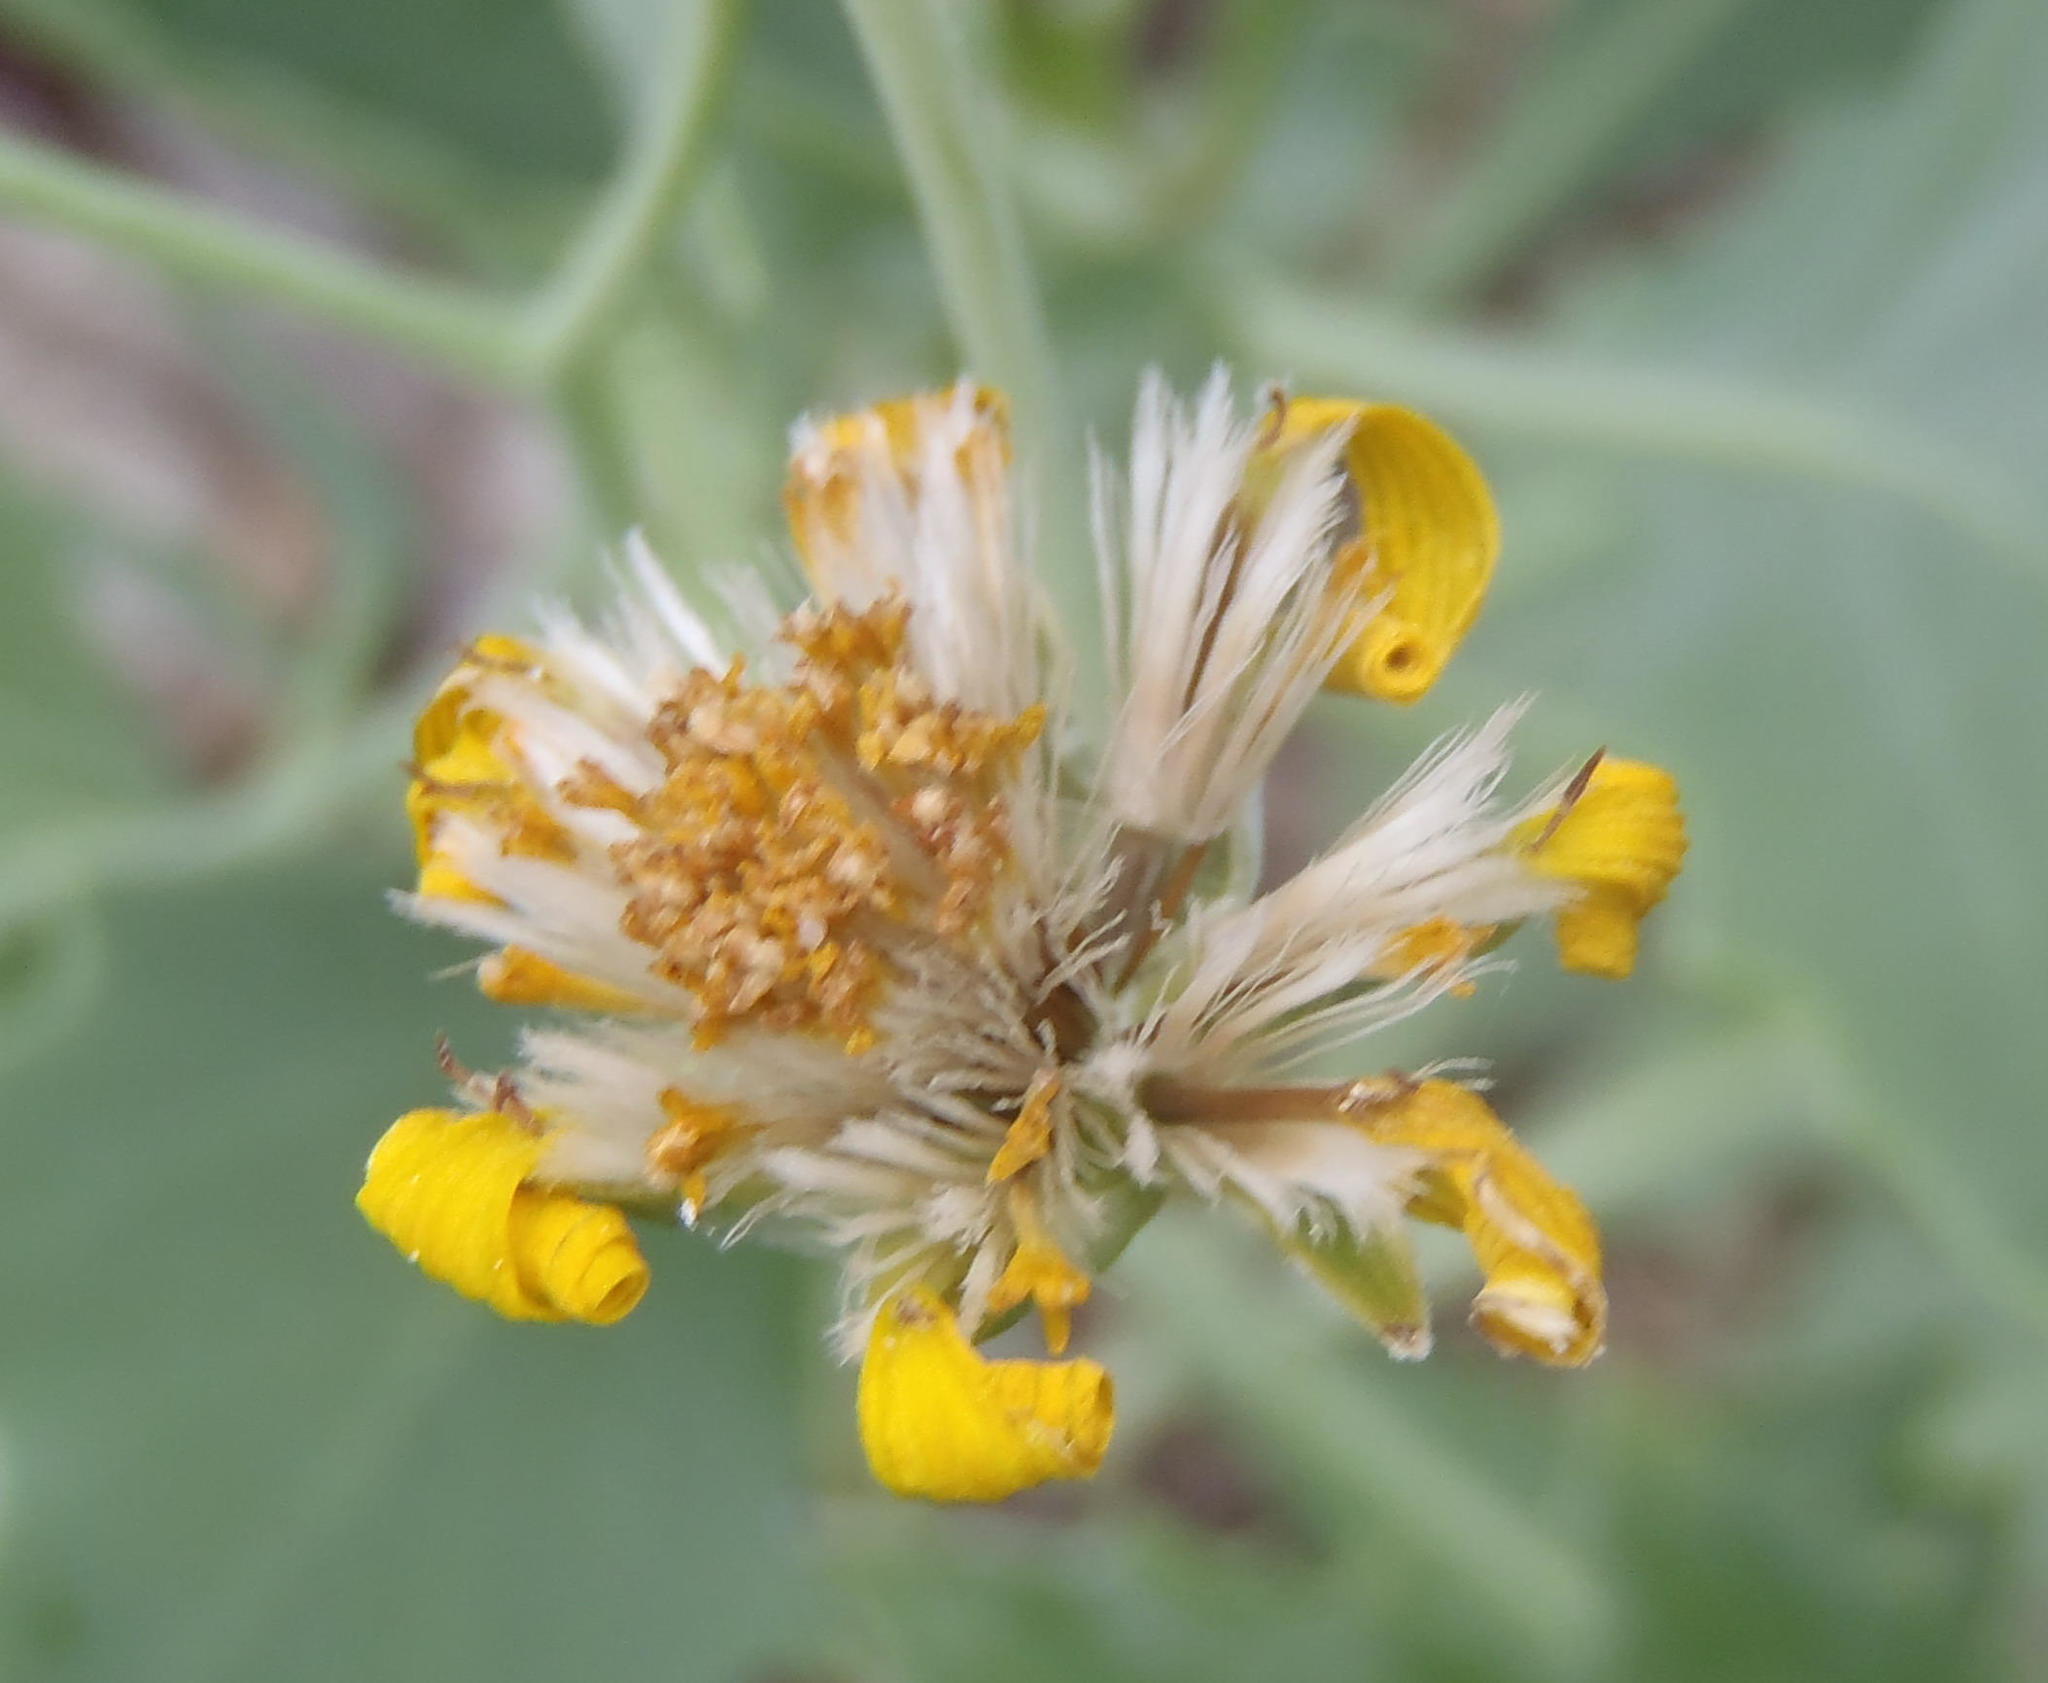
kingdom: Plantae
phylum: Tracheophyta
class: Magnoliopsida
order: Asterales
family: Asteraceae
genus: Othonna
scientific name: Othonna osteospermoides
